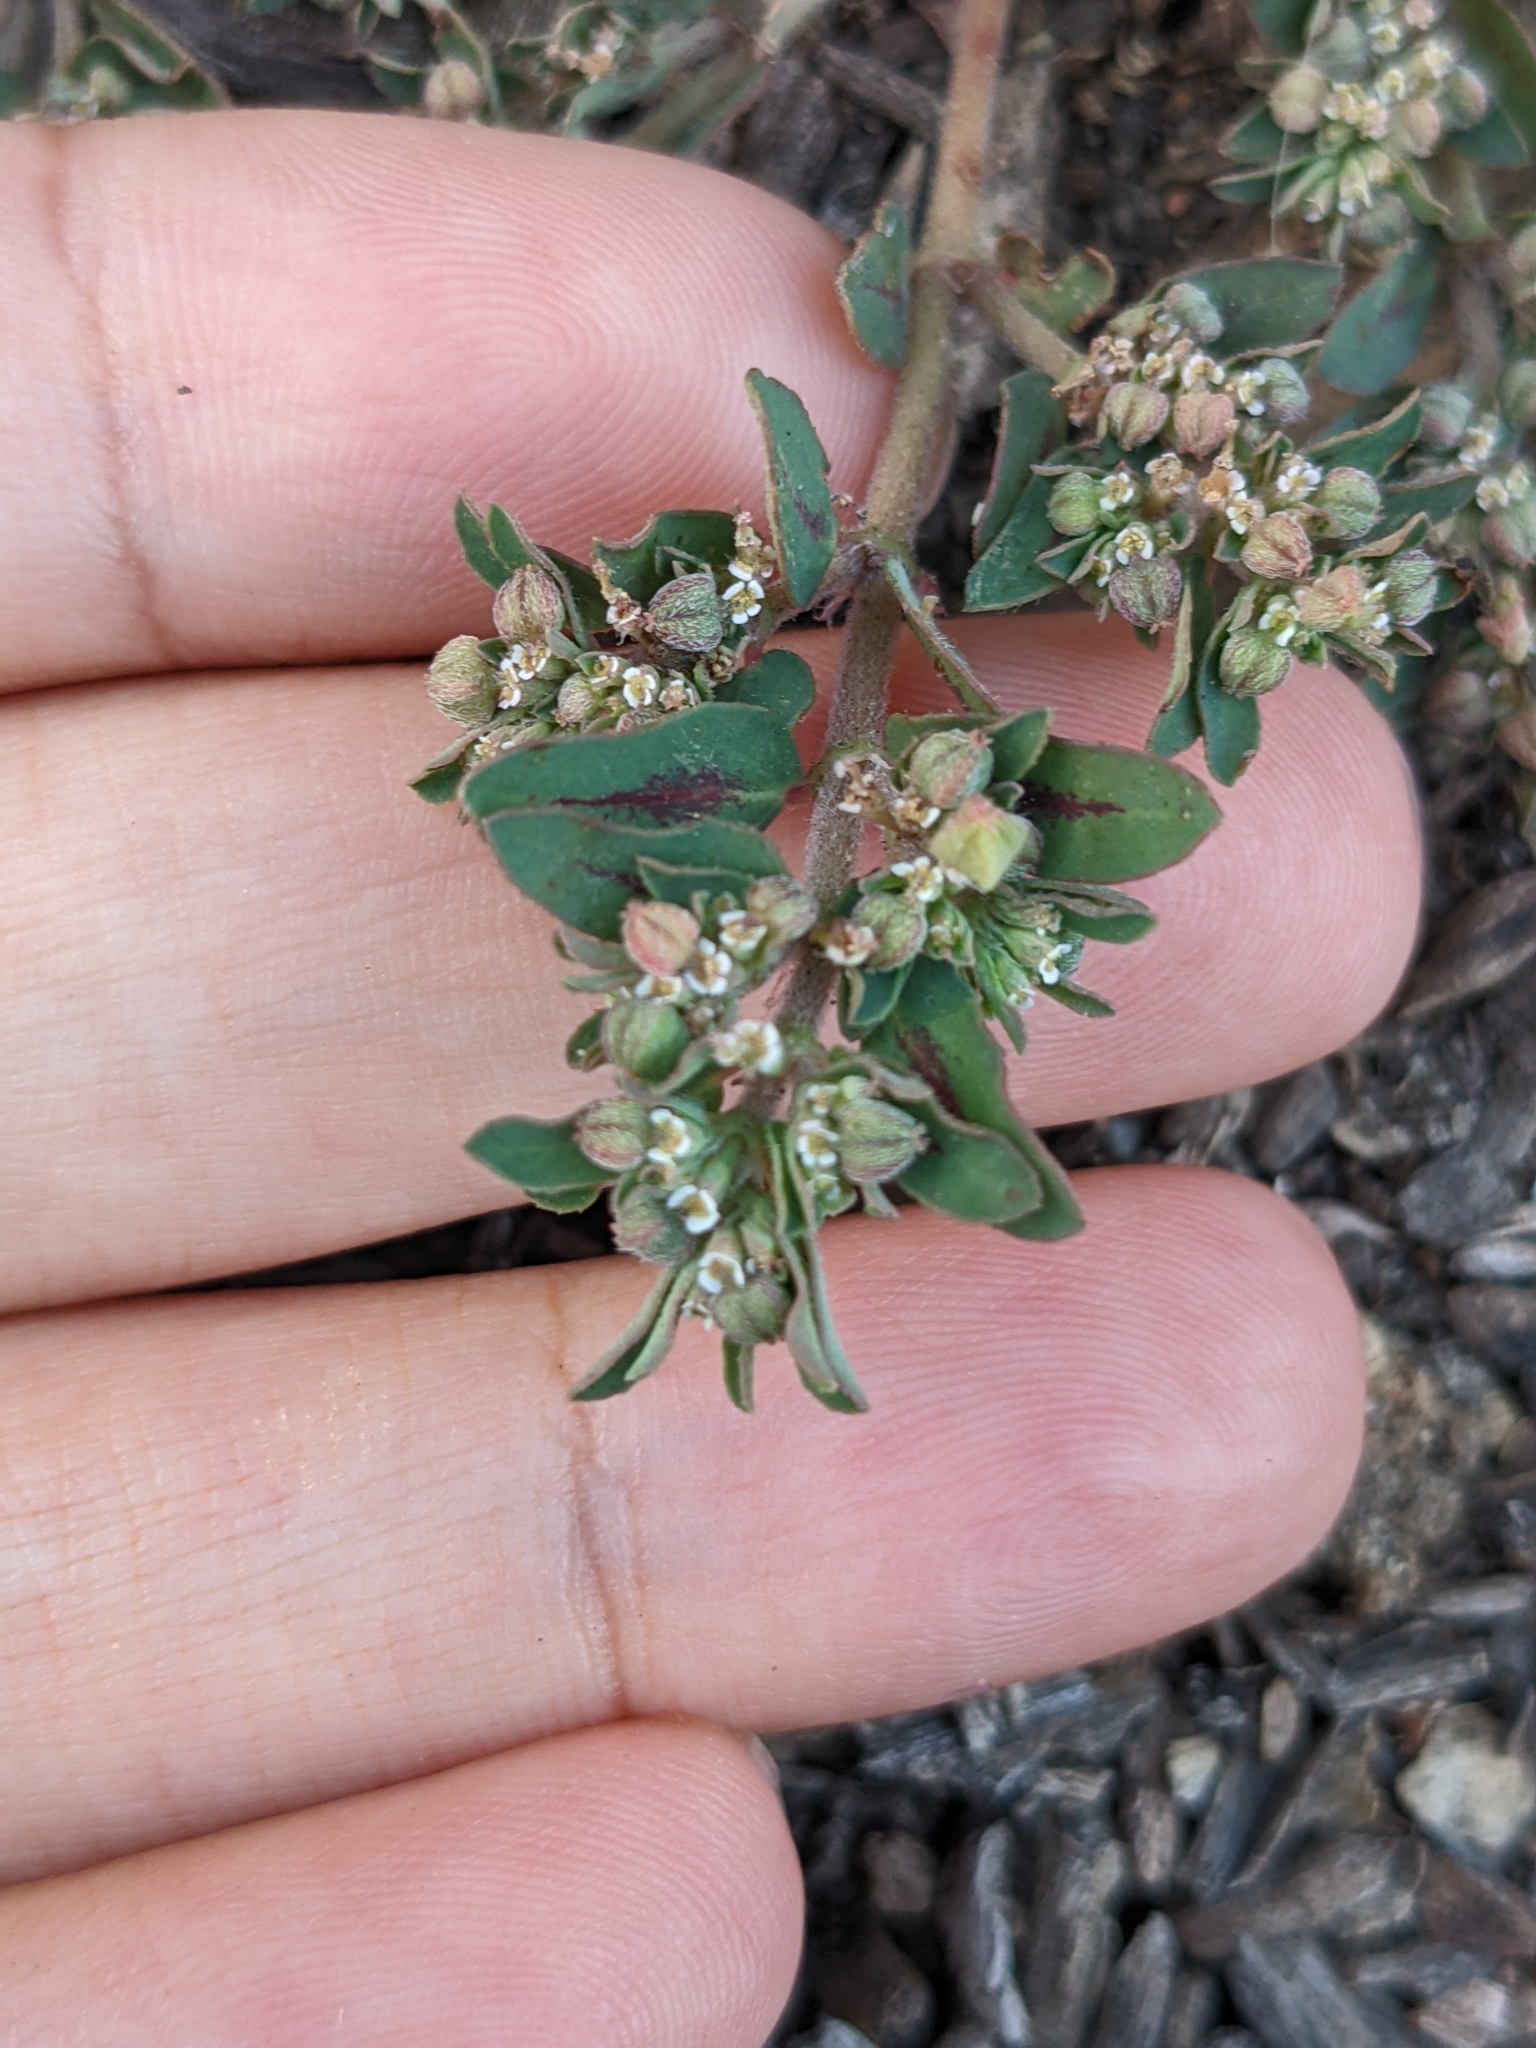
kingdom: Plantae
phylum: Tracheophyta
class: Magnoliopsida
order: Malpighiales
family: Euphorbiaceae
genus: Euphorbia
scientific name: Euphorbia maculata
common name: Spotted spurge
